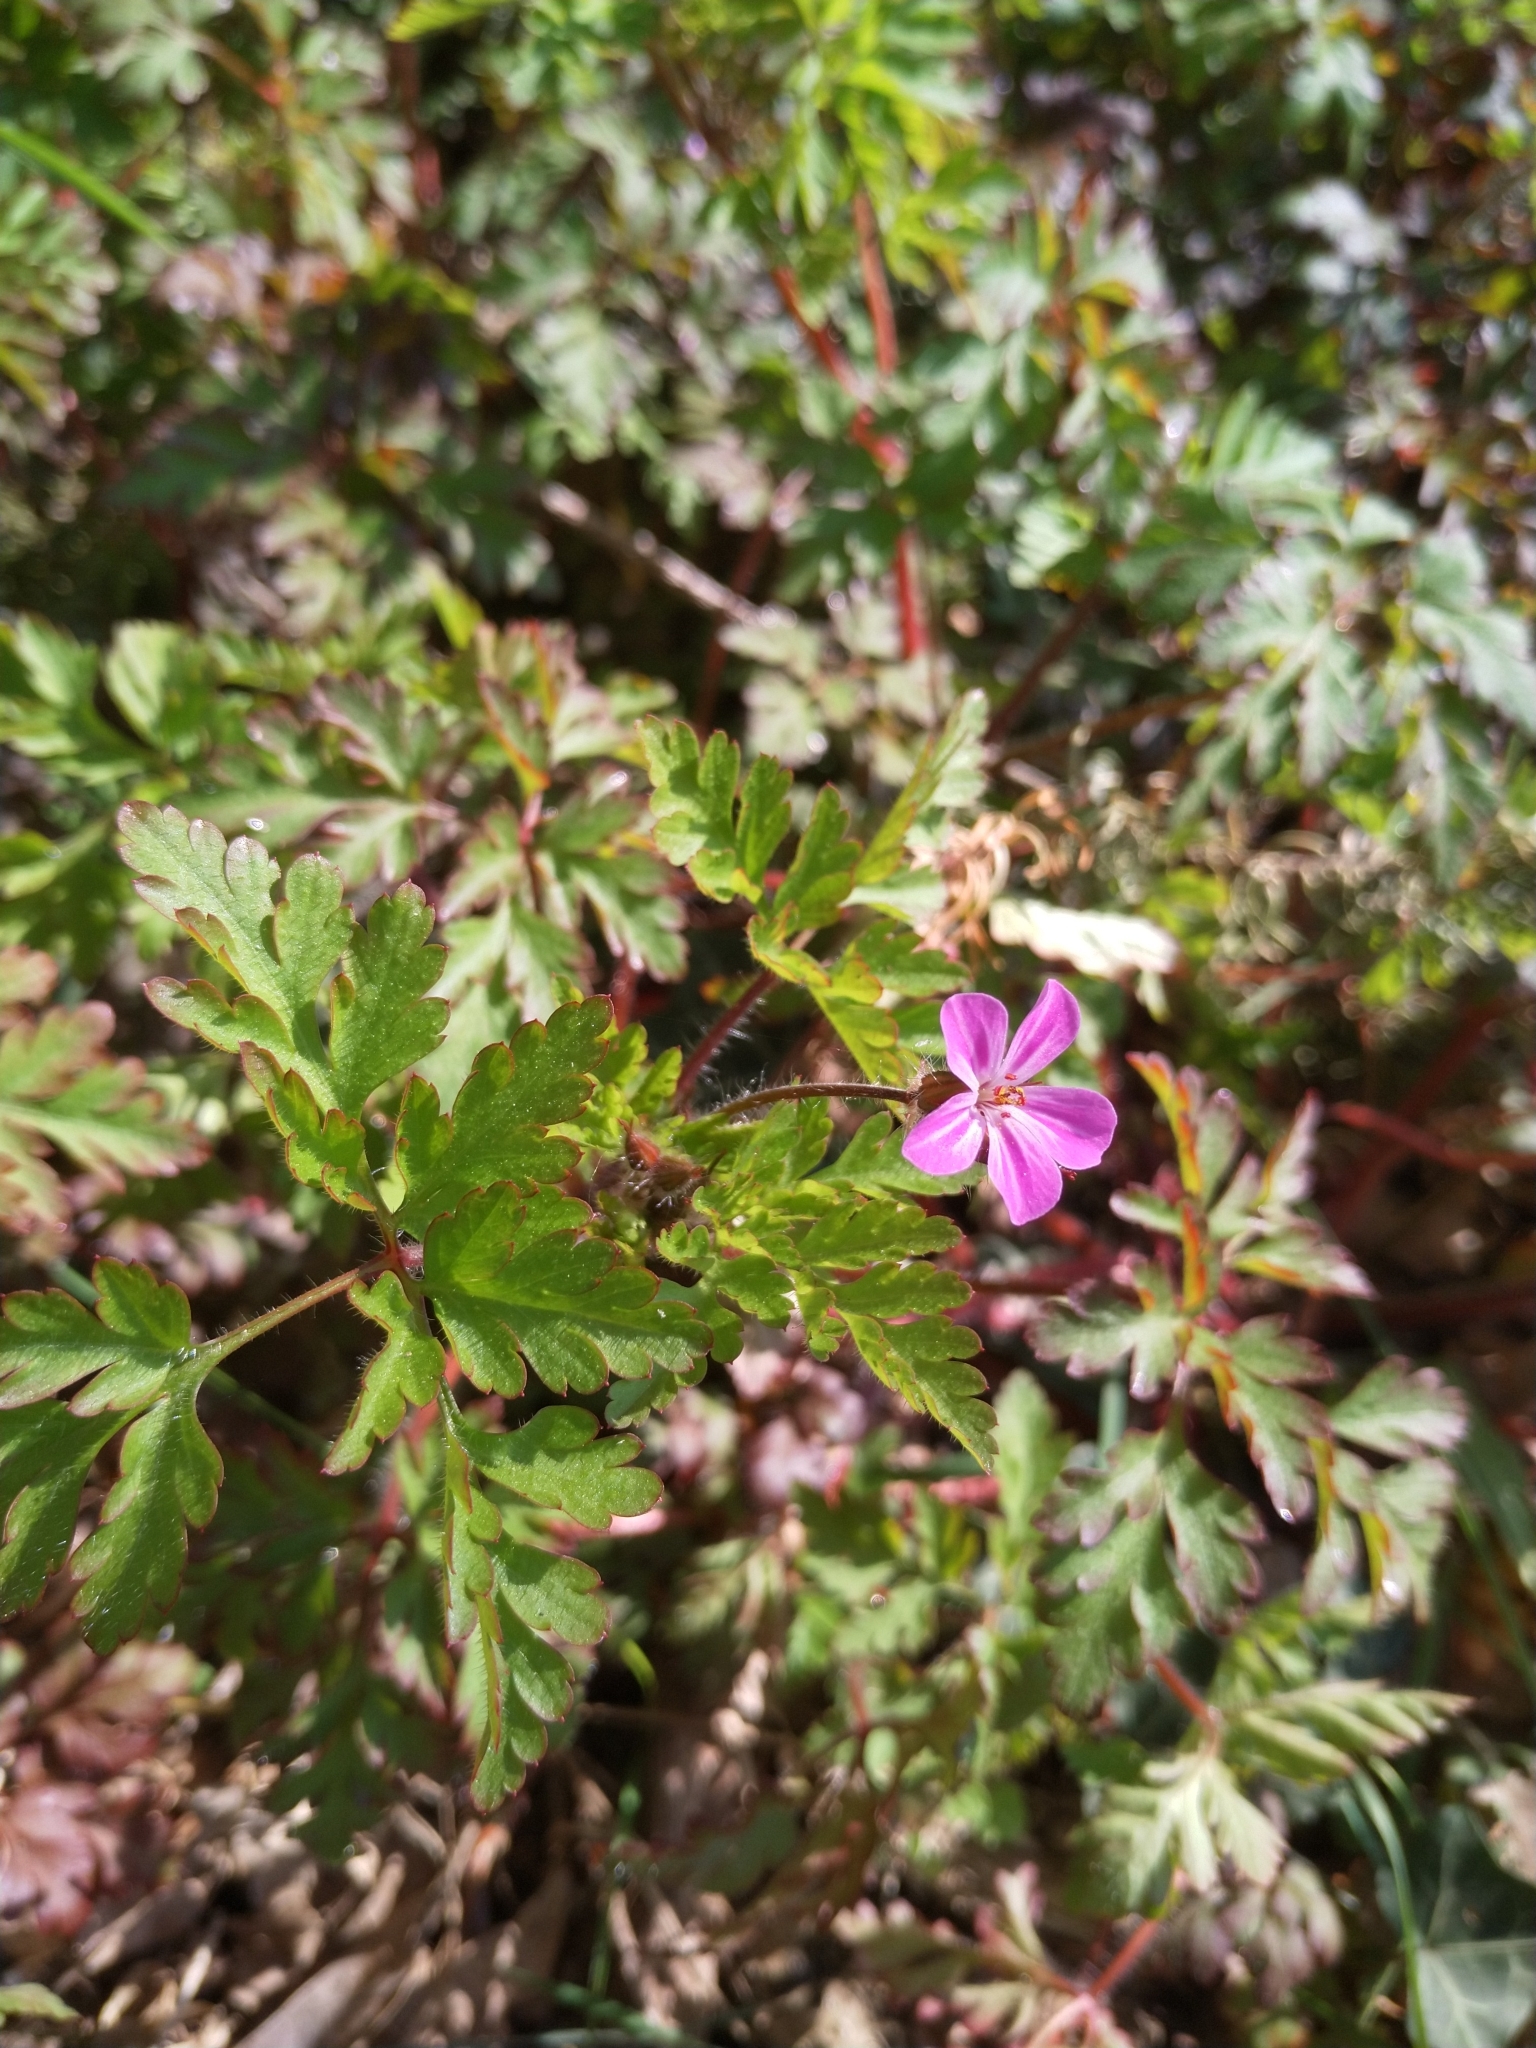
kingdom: Plantae
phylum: Tracheophyta
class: Magnoliopsida
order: Geraniales
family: Geraniaceae
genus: Geranium
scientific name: Geranium robertianum
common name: Herb-robert
